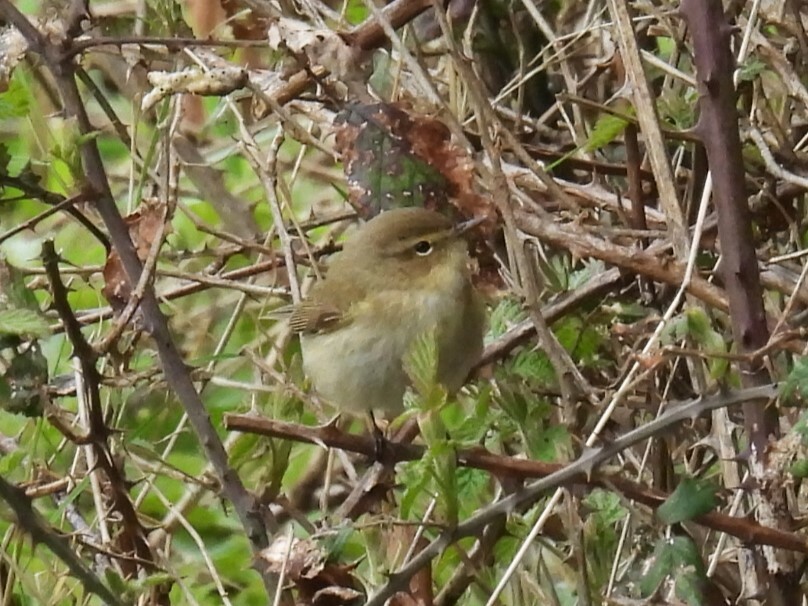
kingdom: Animalia
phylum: Chordata
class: Aves
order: Passeriformes
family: Phylloscopidae
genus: Phylloscopus
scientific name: Phylloscopus collybita
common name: Common chiffchaff
